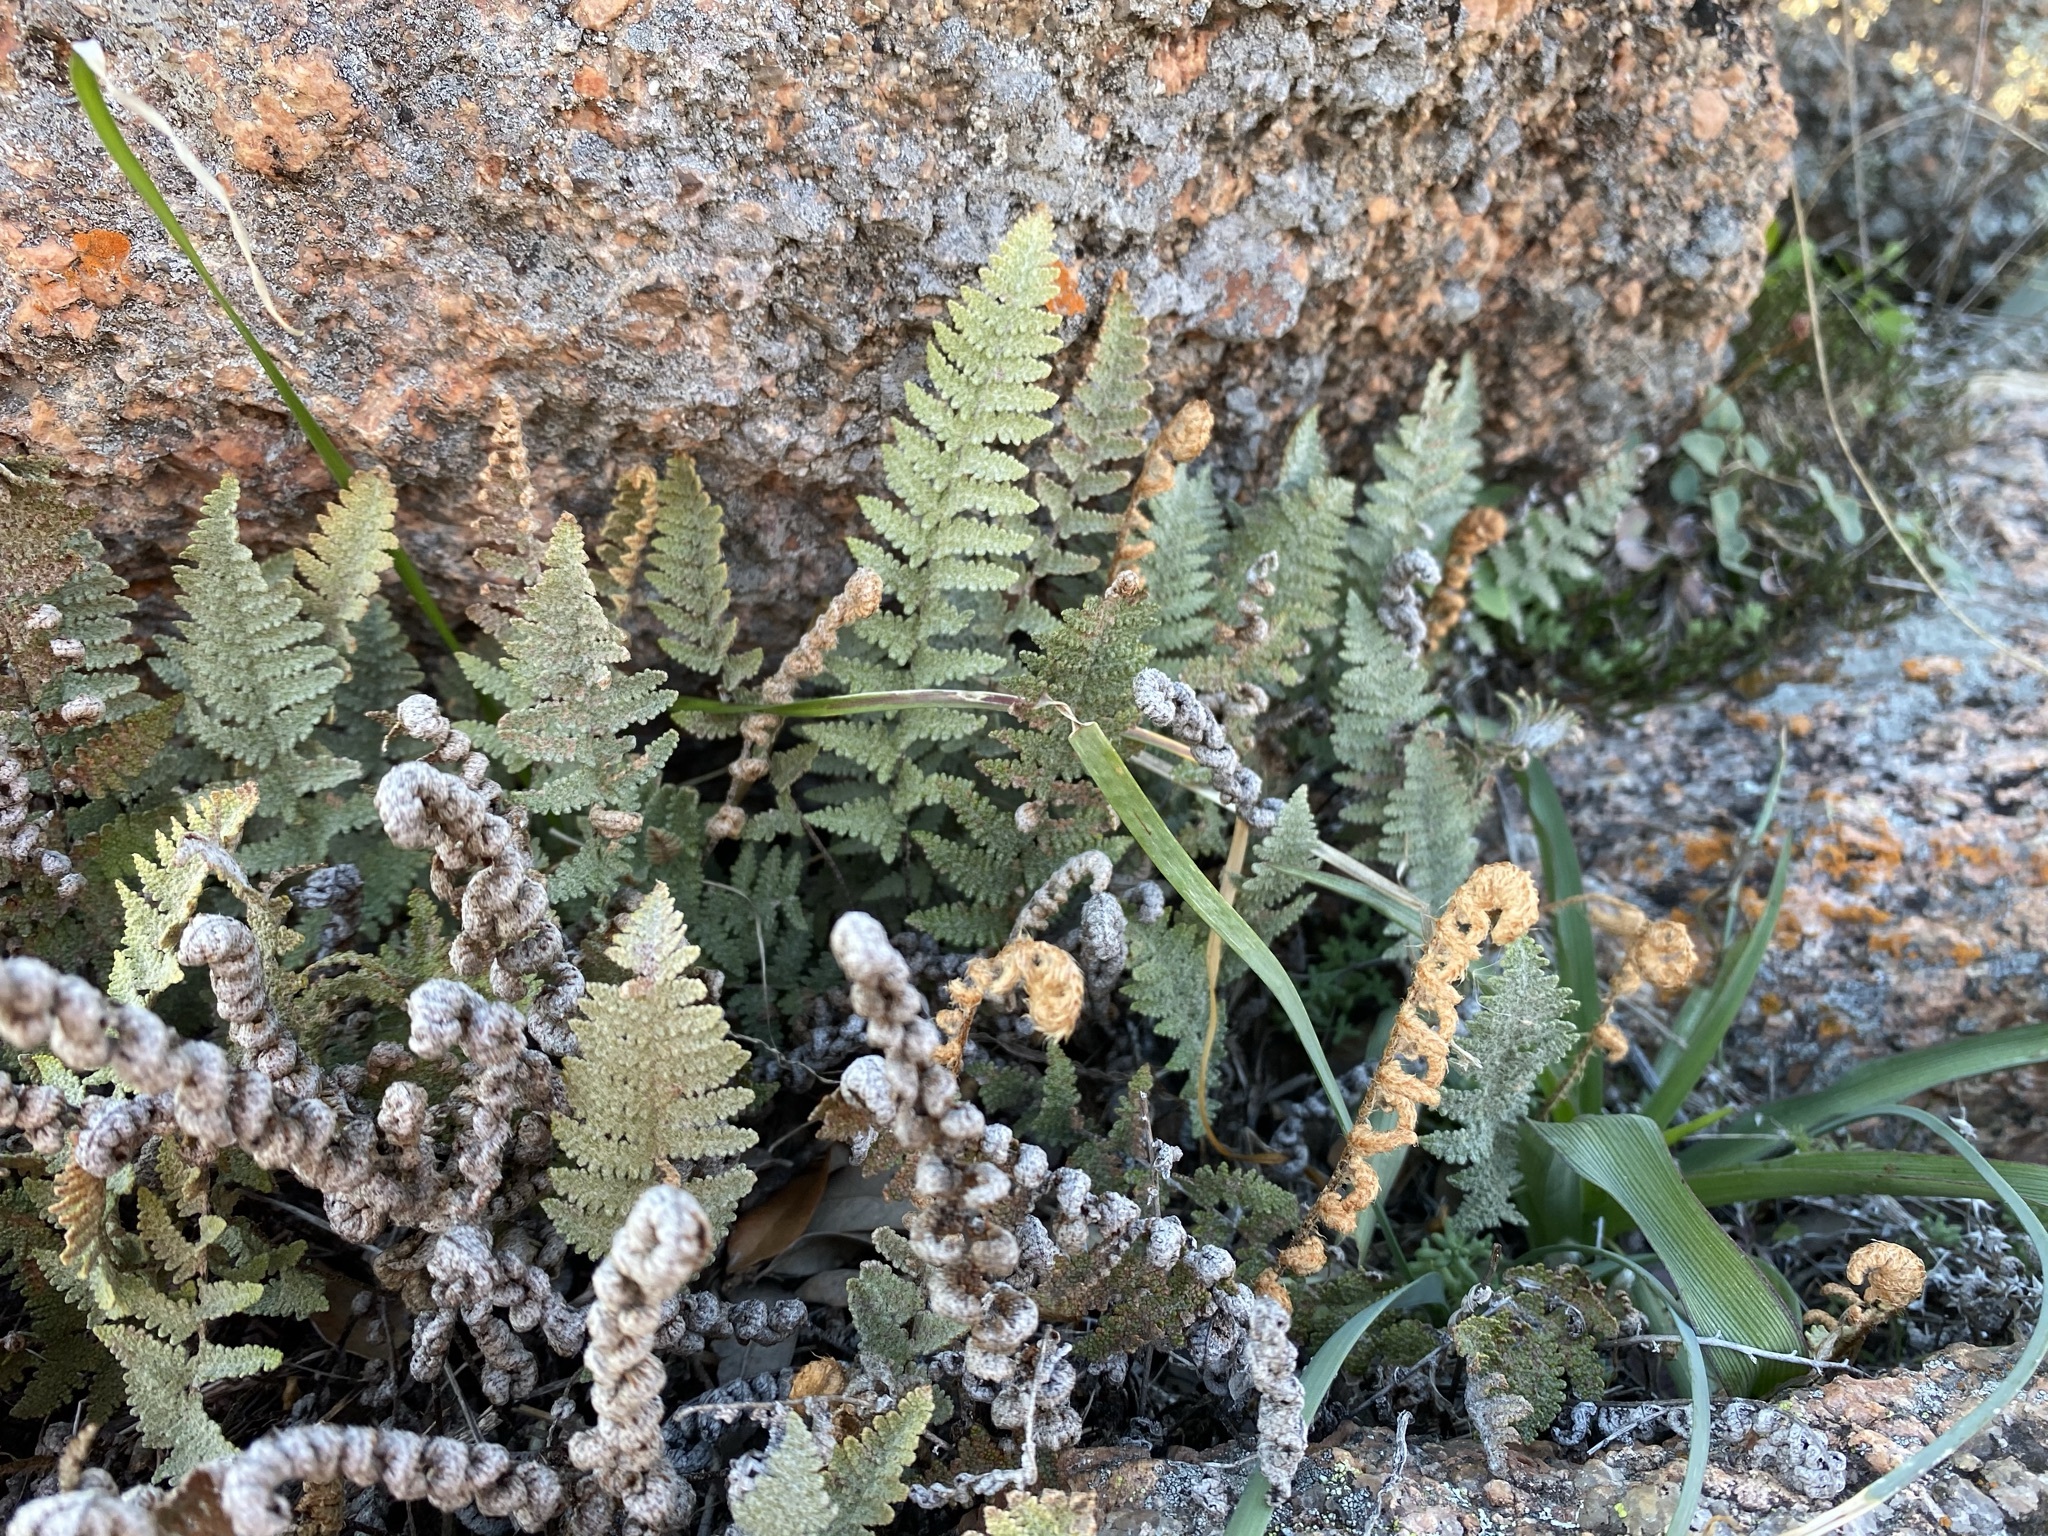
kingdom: Plantae
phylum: Tracheophyta
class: Polypodiopsida
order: Polypodiales
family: Pteridaceae
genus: Myriopteris
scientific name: Myriopteris lindheimeri
